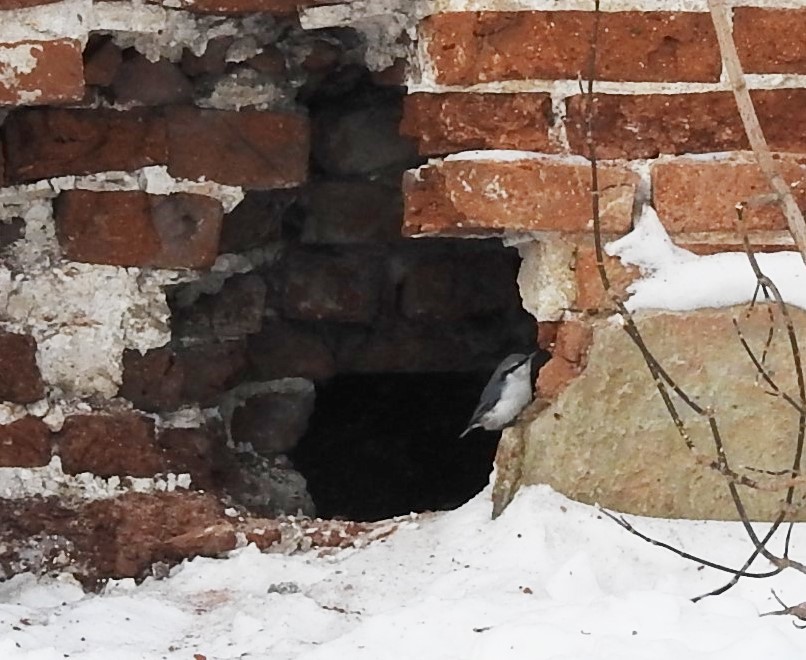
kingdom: Animalia
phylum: Chordata
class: Aves
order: Passeriformes
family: Sittidae
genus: Sitta
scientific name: Sitta europaea
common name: Eurasian nuthatch
